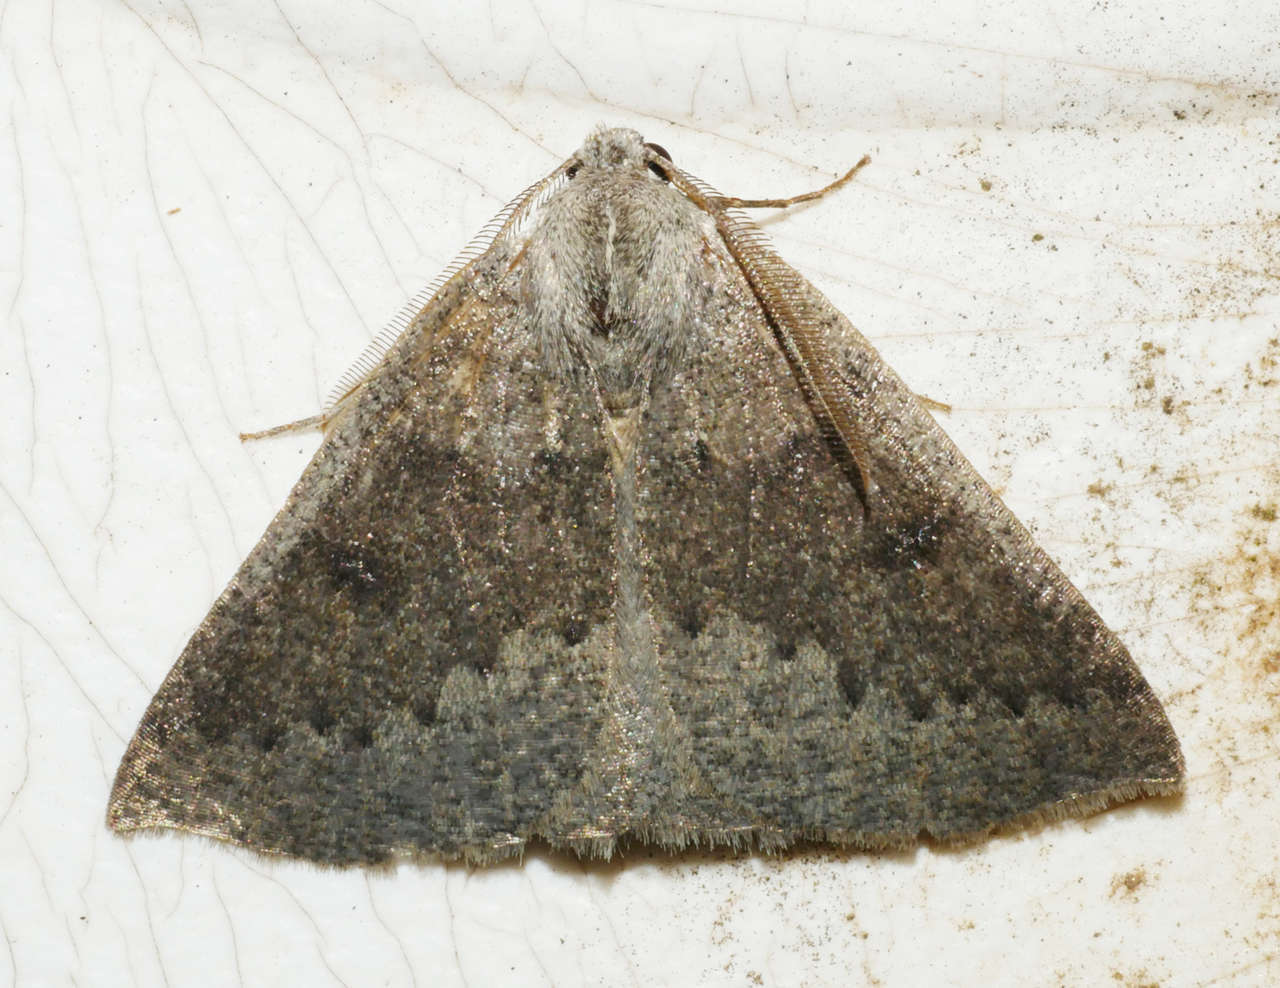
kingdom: Animalia
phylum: Arthropoda
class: Insecta
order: Lepidoptera
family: Geometridae
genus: Androchela
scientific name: Androchela milvaria
